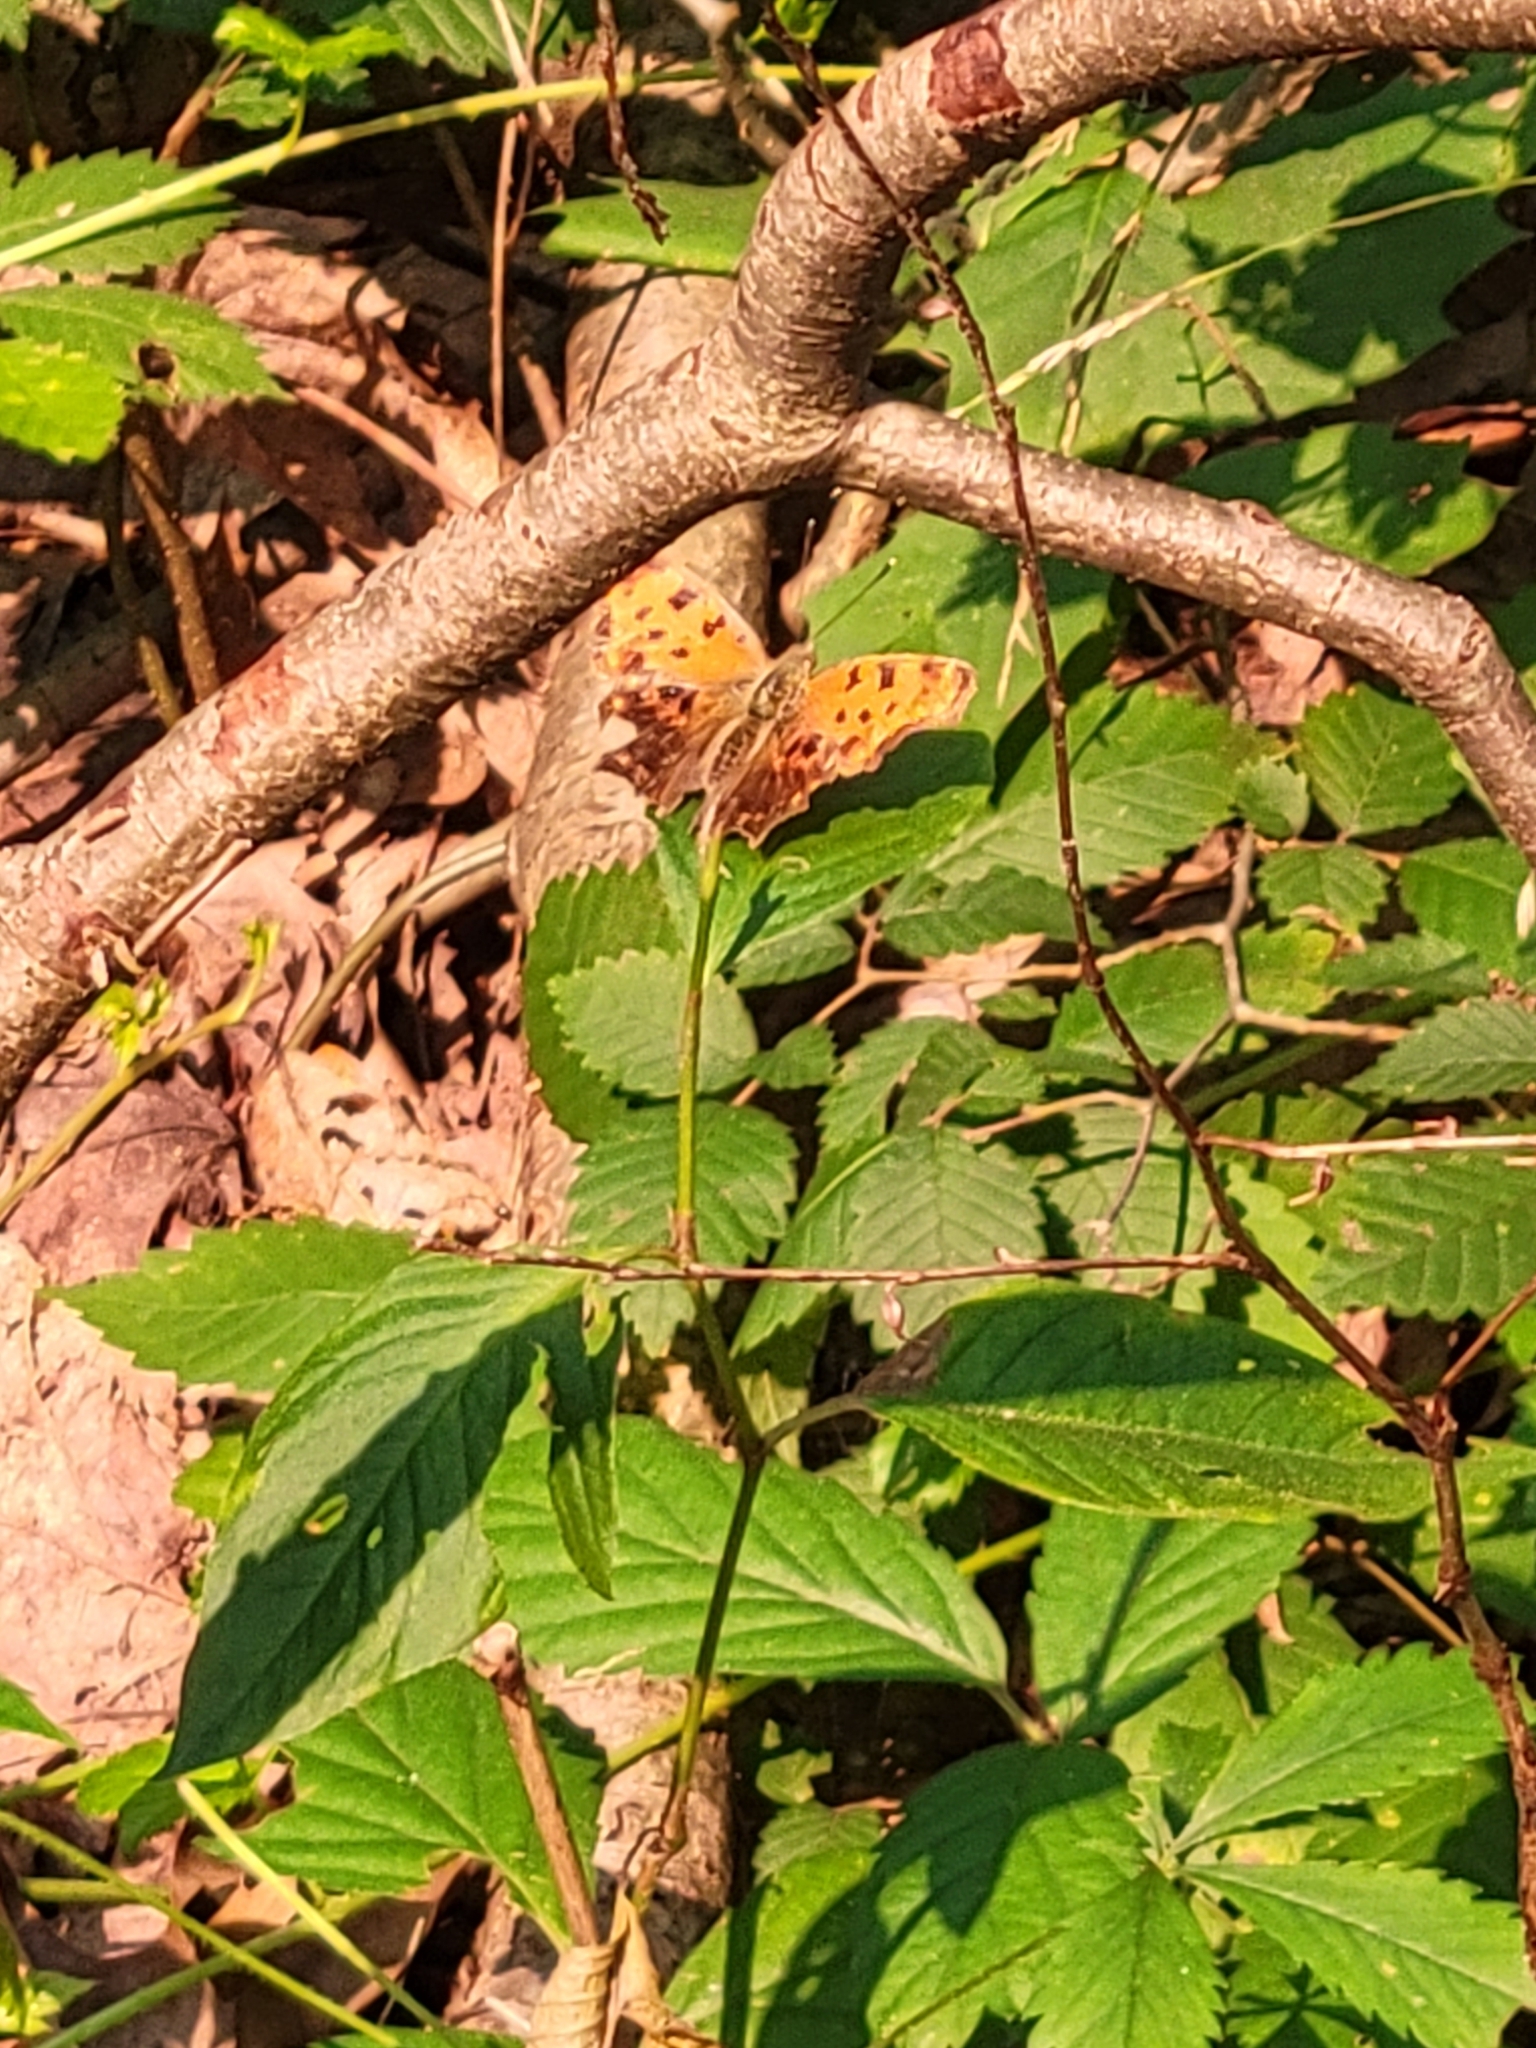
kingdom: Animalia
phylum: Arthropoda
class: Insecta
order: Lepidoptera
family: Nymphalidae
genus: Polygonia
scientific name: Polygonia comma
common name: Eastern comma
